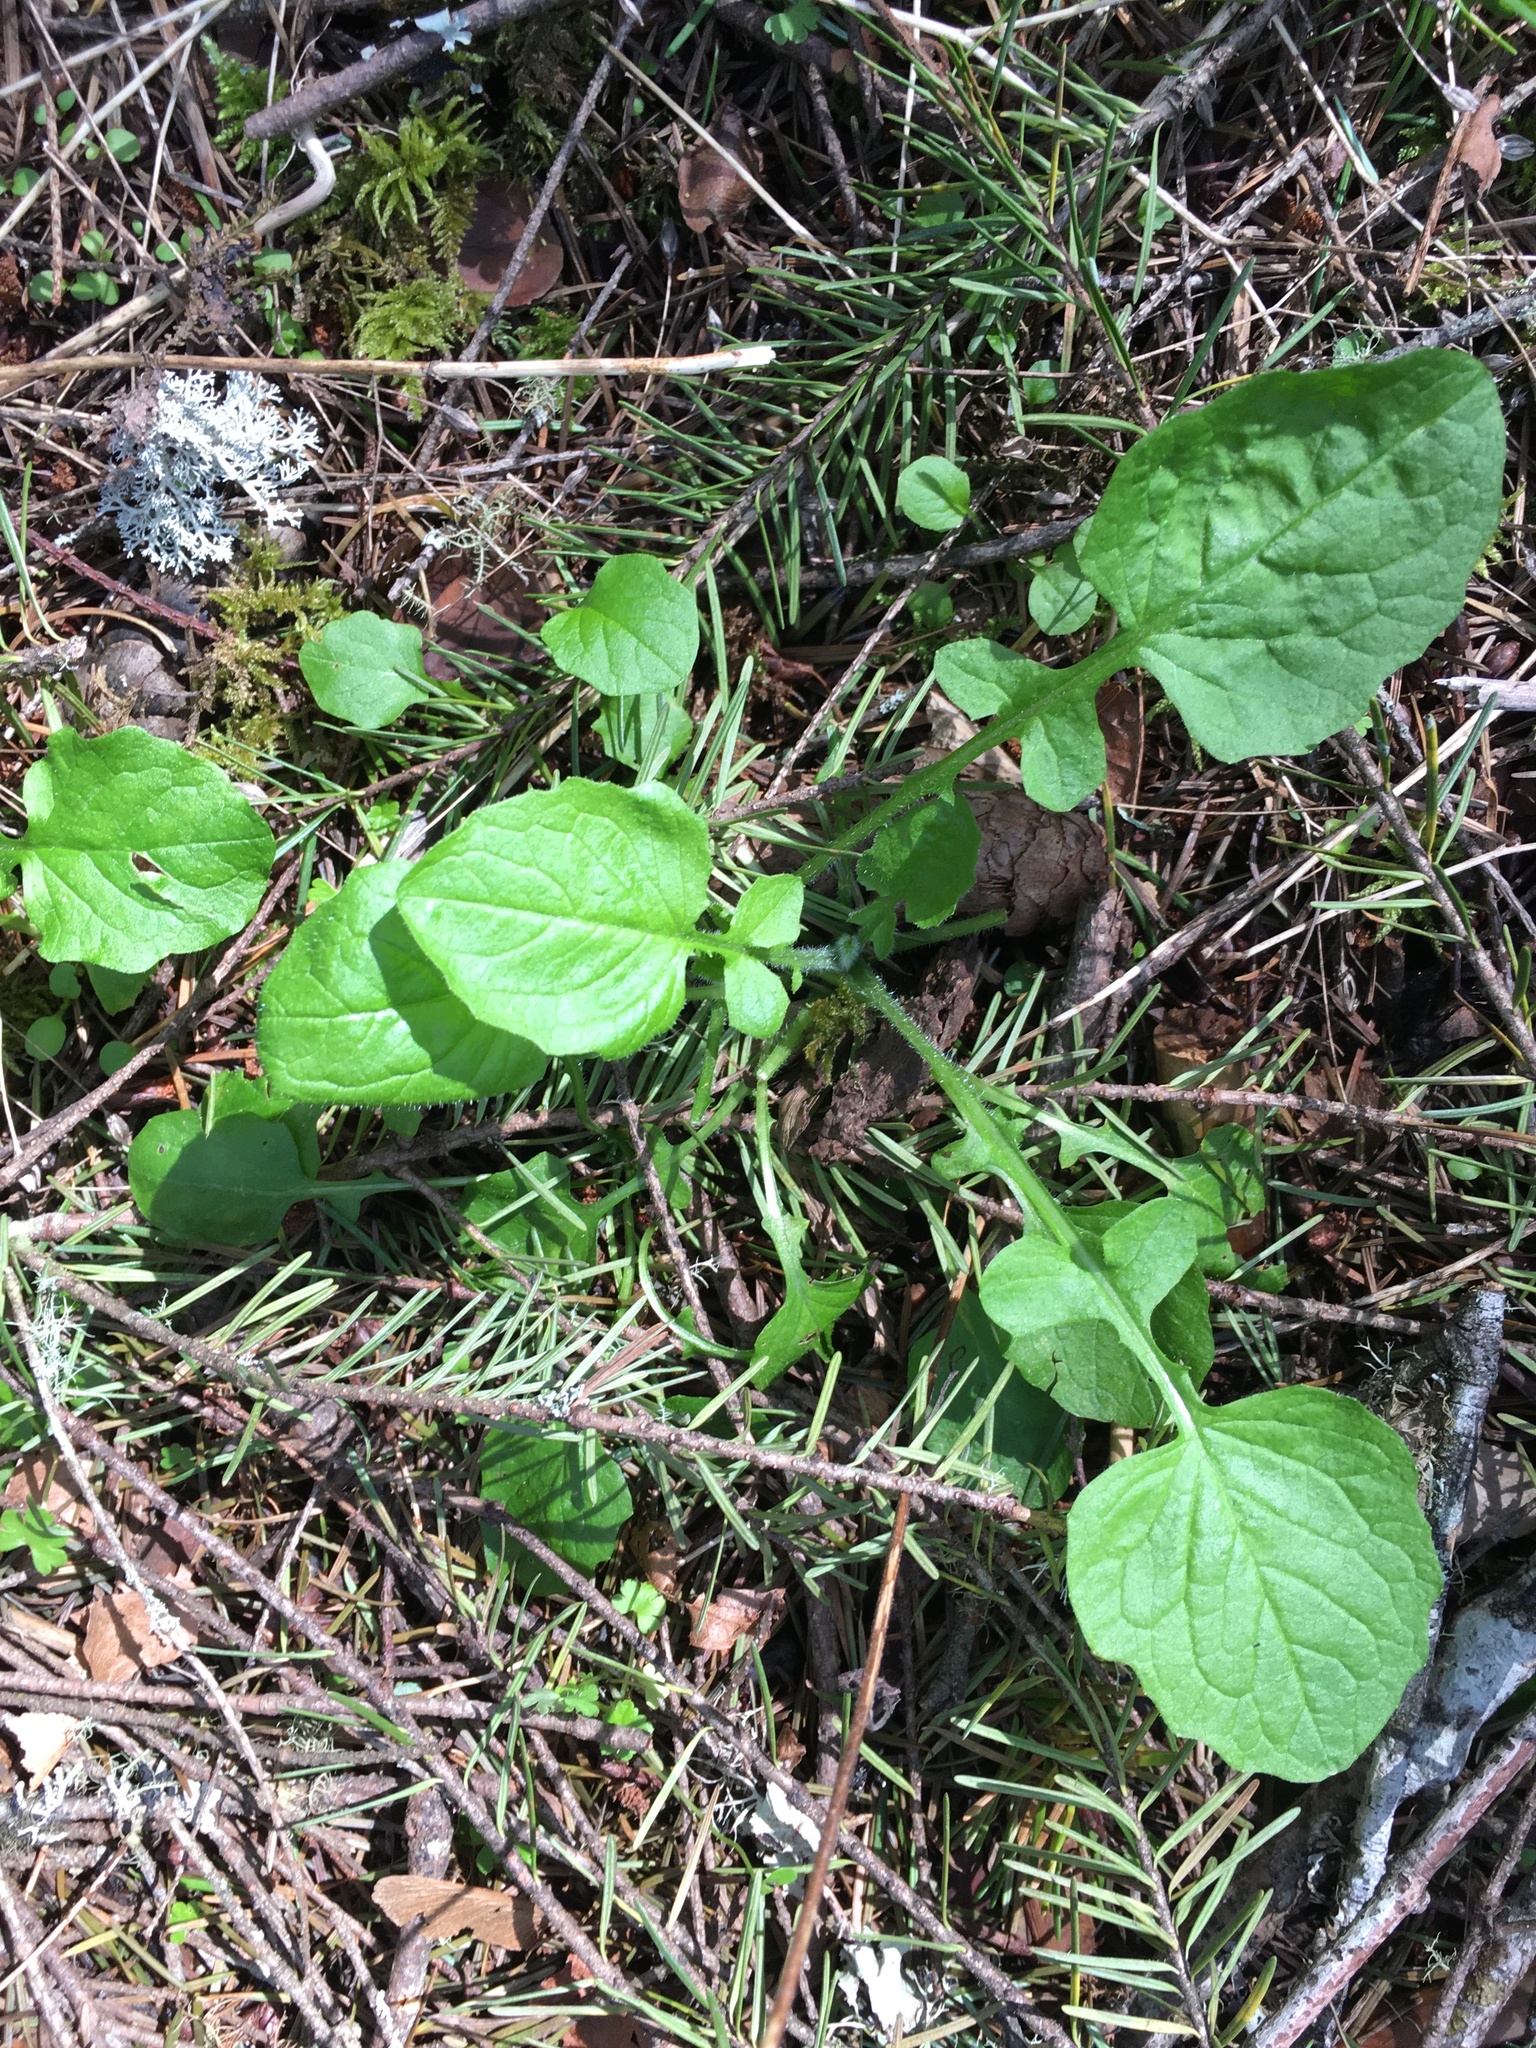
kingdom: Plantae
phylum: Tracheophyta
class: Magnoliopsida
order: Asterales
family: Asteraceae
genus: Lapsana
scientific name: Lapsana communis
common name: Nipplewort
